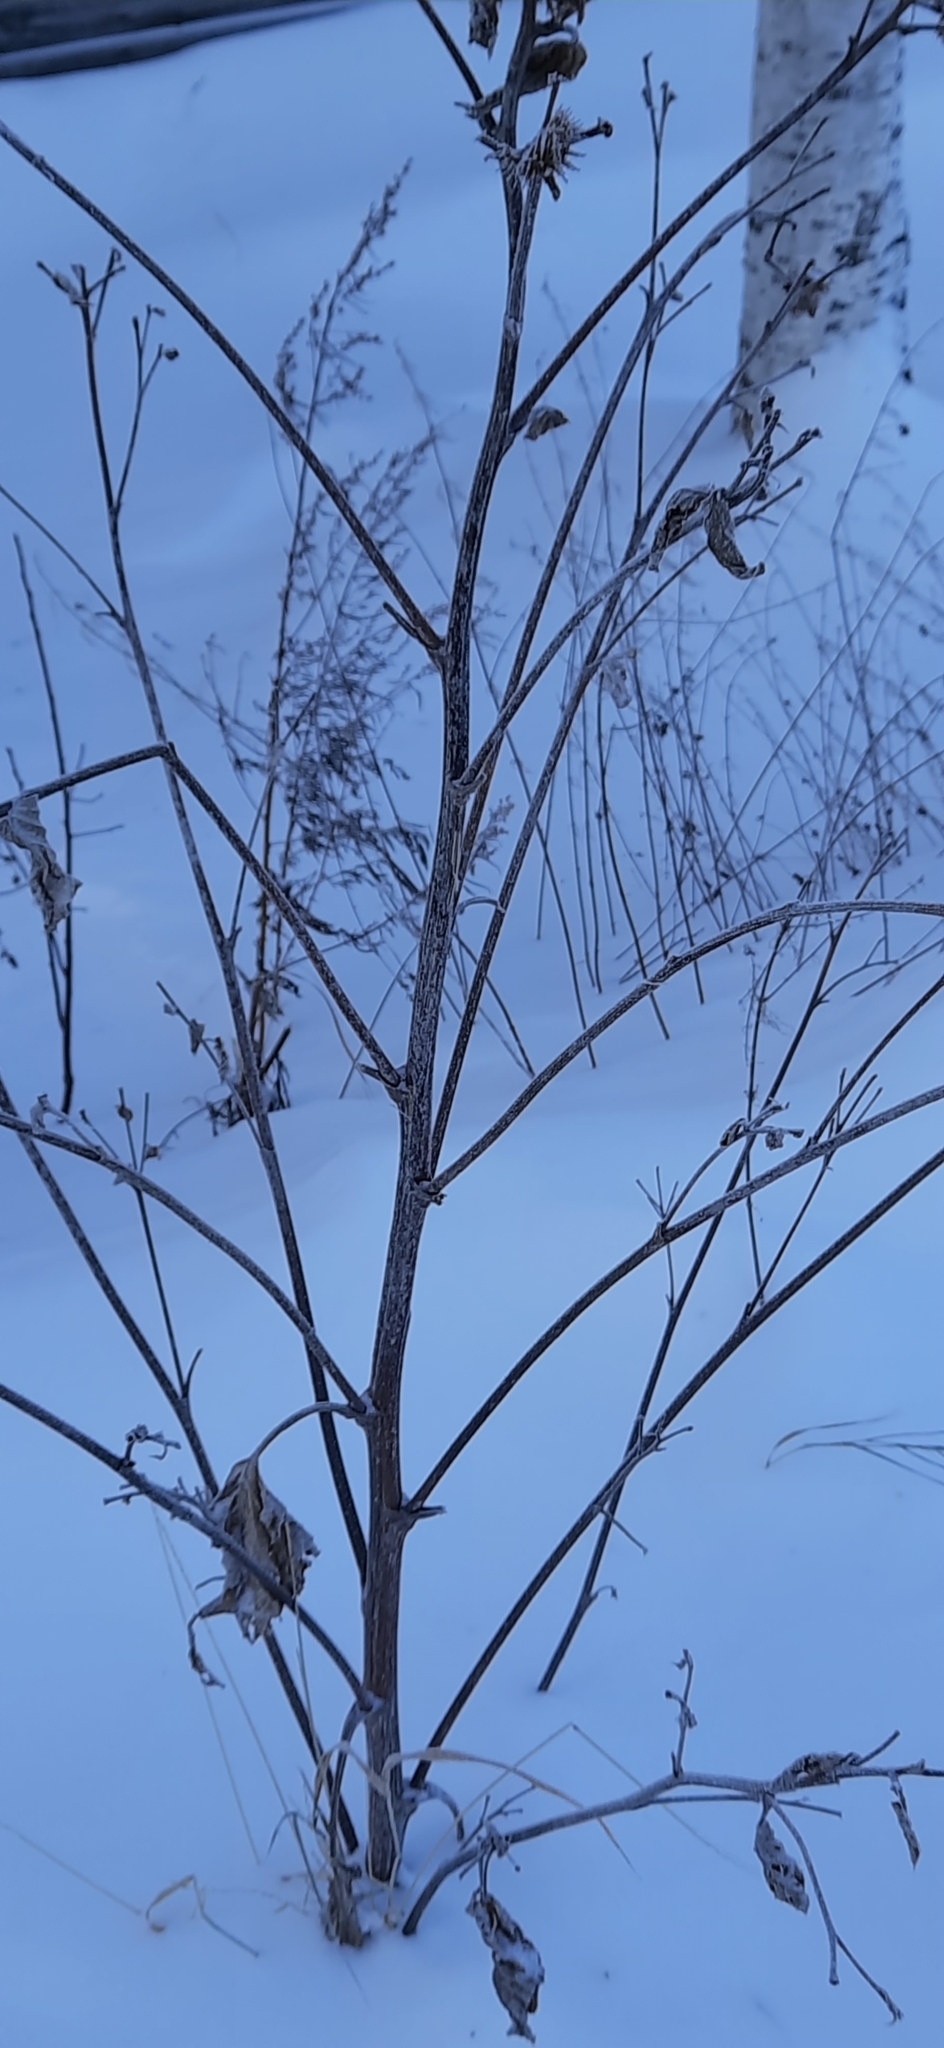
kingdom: Plantae
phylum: Tracheophyta
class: Magnoliopsida
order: Asterales
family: Asteraceae
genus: Arctium
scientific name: Arctium tomentosum
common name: Woolly burdock
